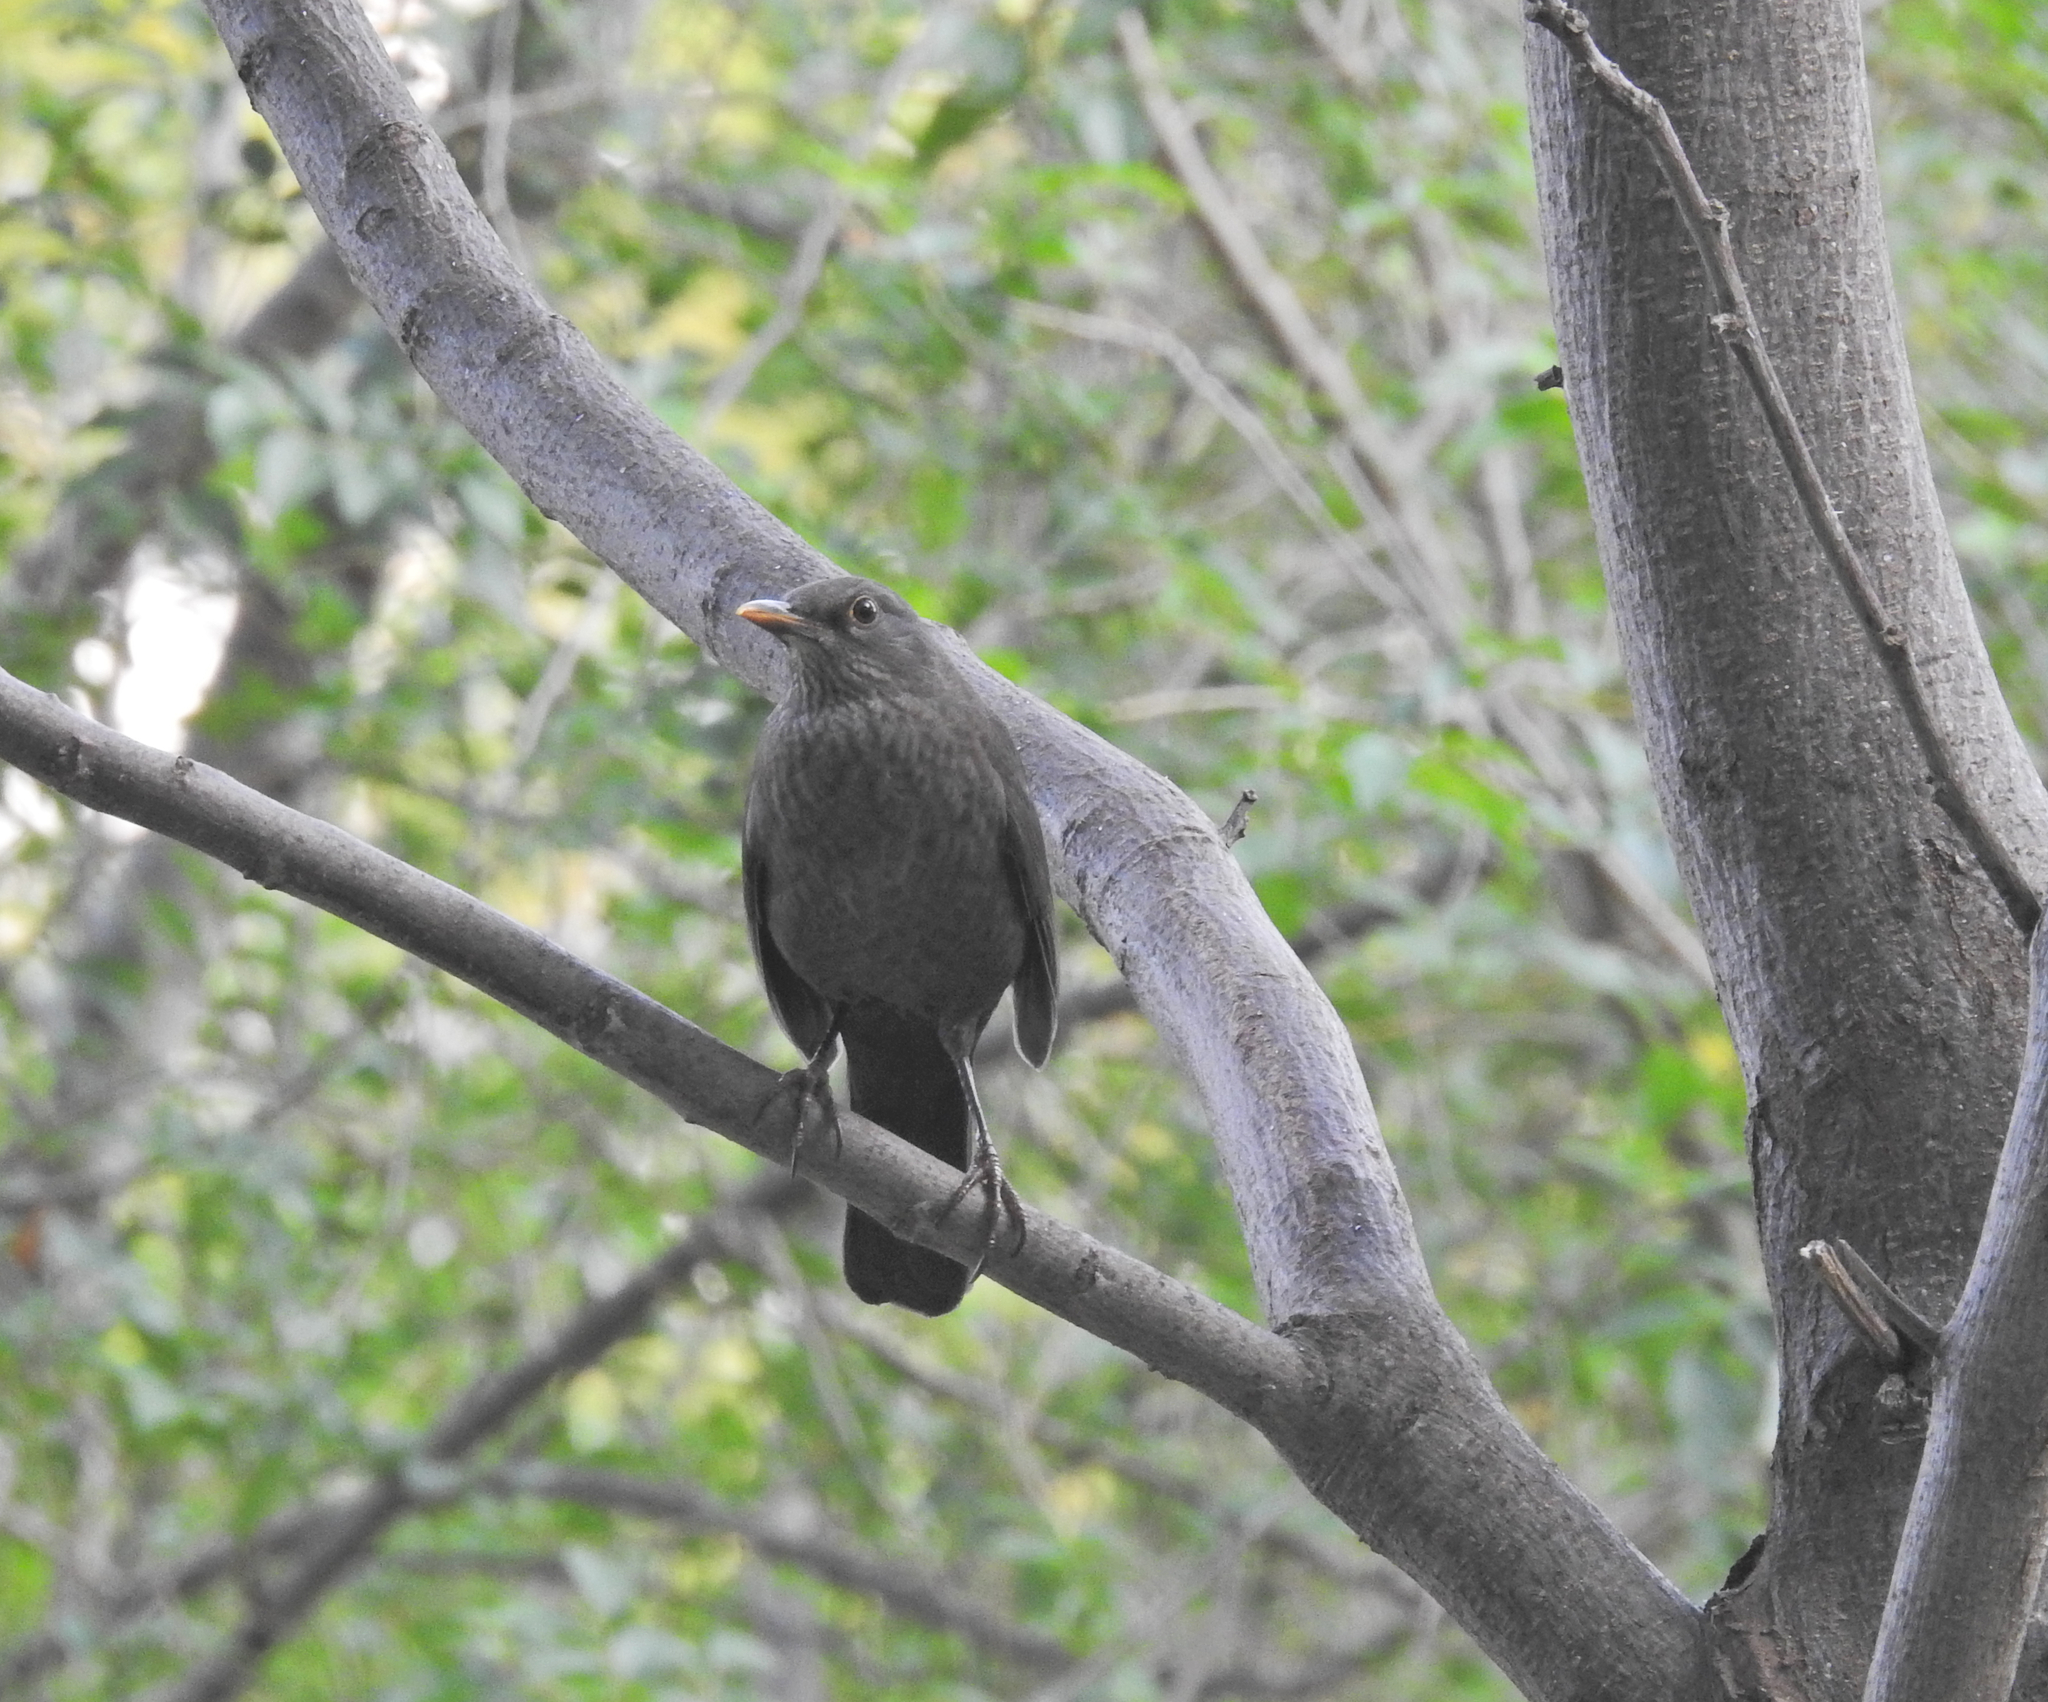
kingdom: Animalia
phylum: Chordata
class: Aves
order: Passeriformes
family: Turdidae
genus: Turdus
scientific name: Turdus merula
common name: Common blackbird
